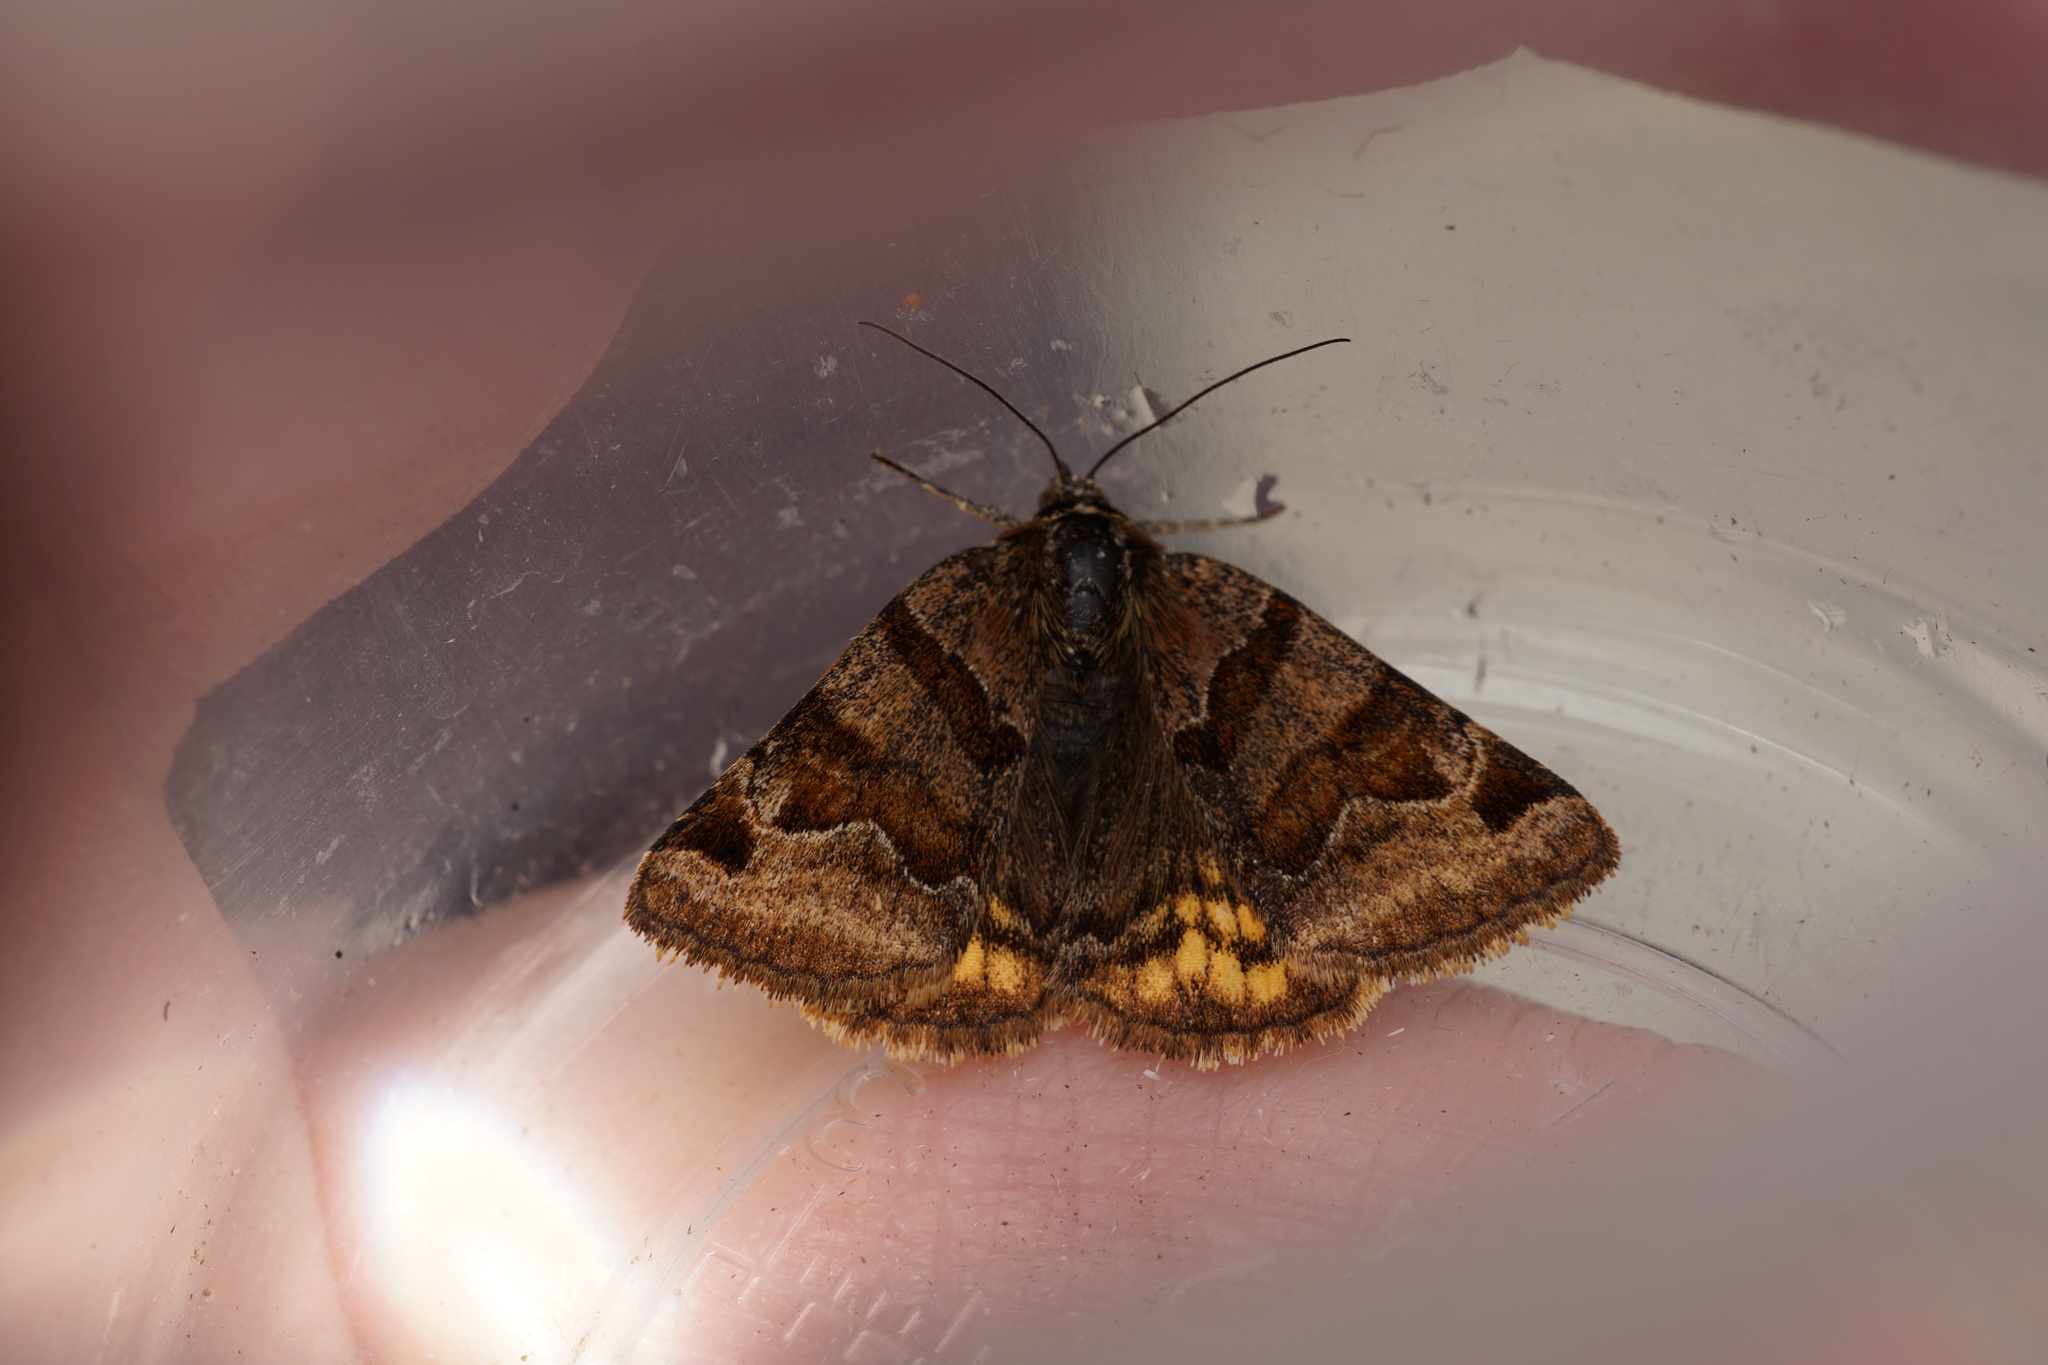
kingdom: Animalia
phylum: Arthropoda
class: Insecta
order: Lepidoptera
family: Erebidae
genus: Euclidia
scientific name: Euclidia glyphica
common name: Burnet companion
